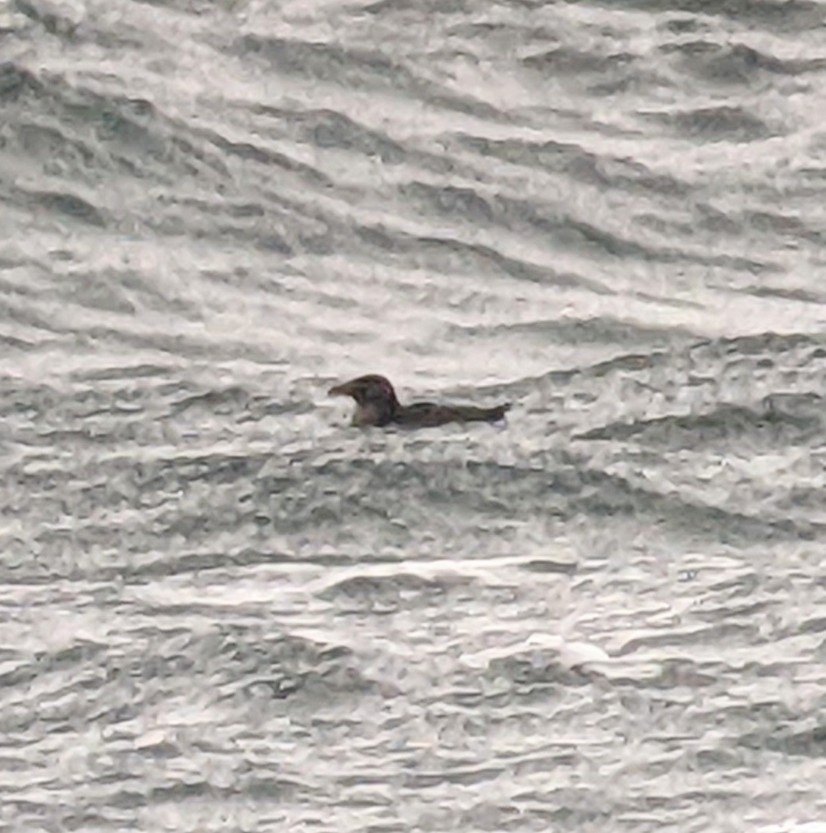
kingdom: Animalia
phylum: Chordata
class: Aves
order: Charadriiformes
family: Alcidae
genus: Cerorhinca
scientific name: Cerorhinca monocerata
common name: Rhinoceros auklet
